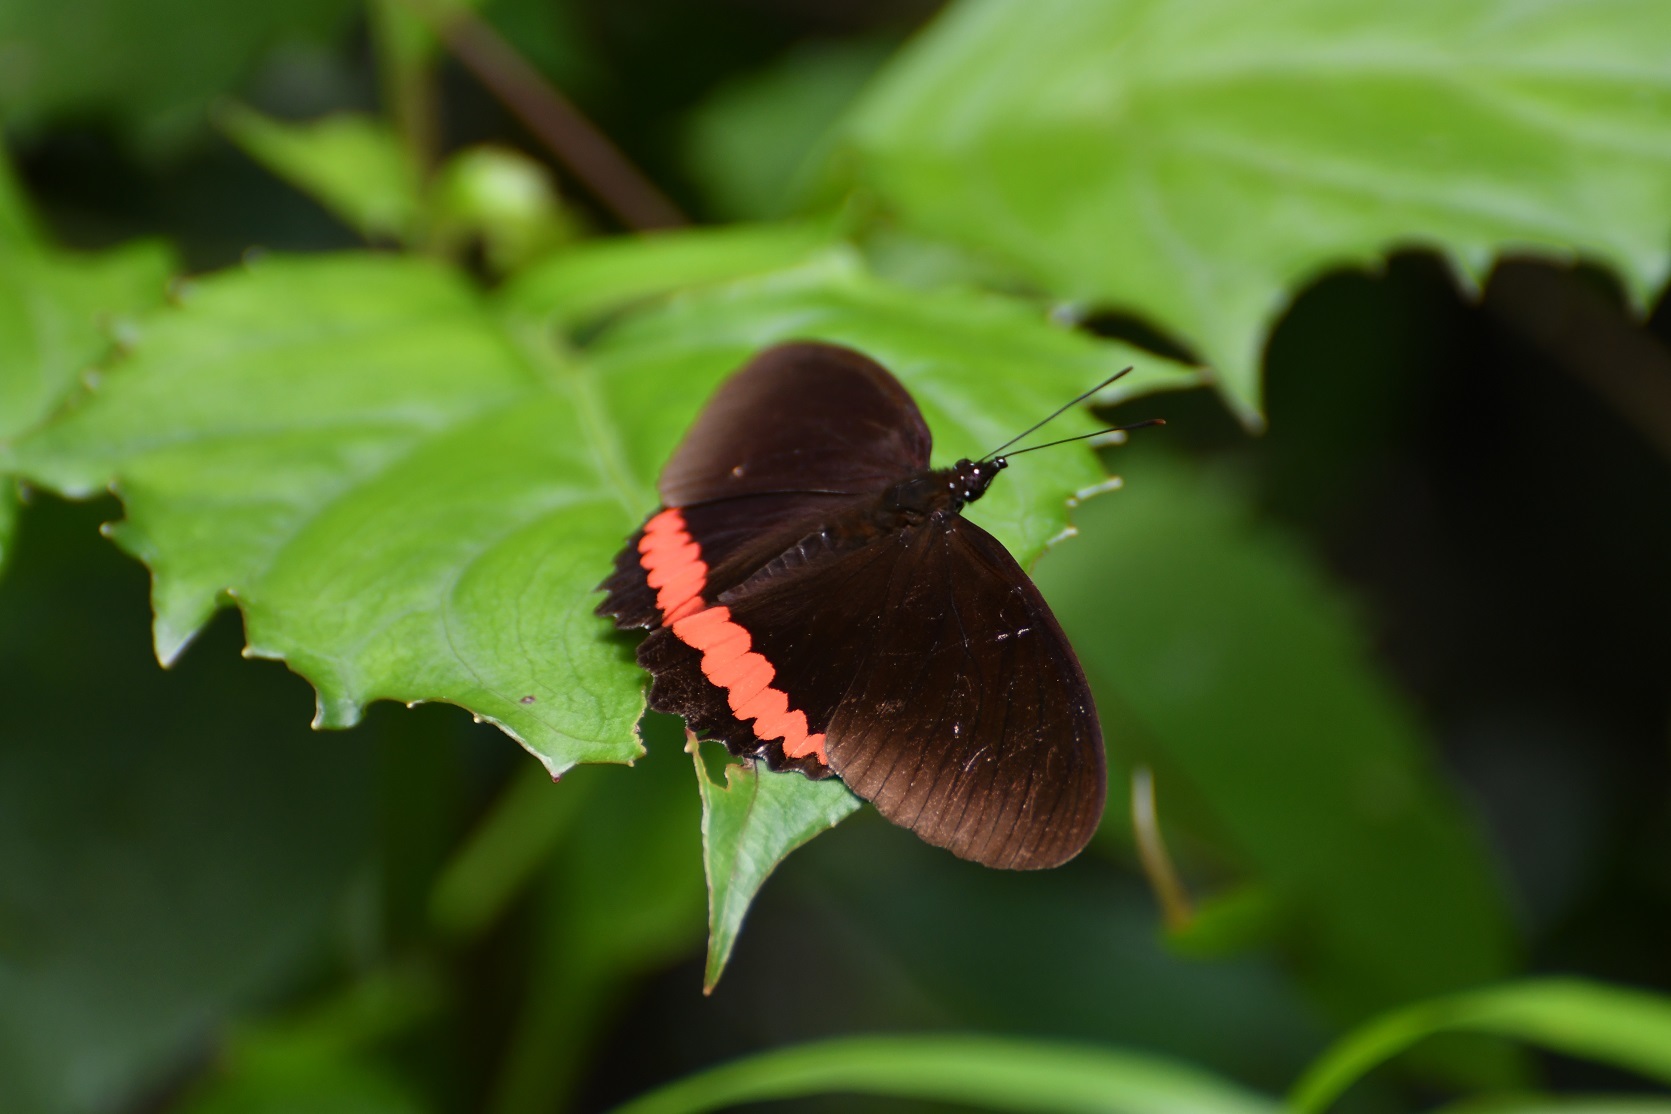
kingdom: Animalia
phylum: Arthropoda
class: Insecta
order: Lepidoptera
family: Nymphalidae
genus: Biblis
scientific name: Biblis aganisa
